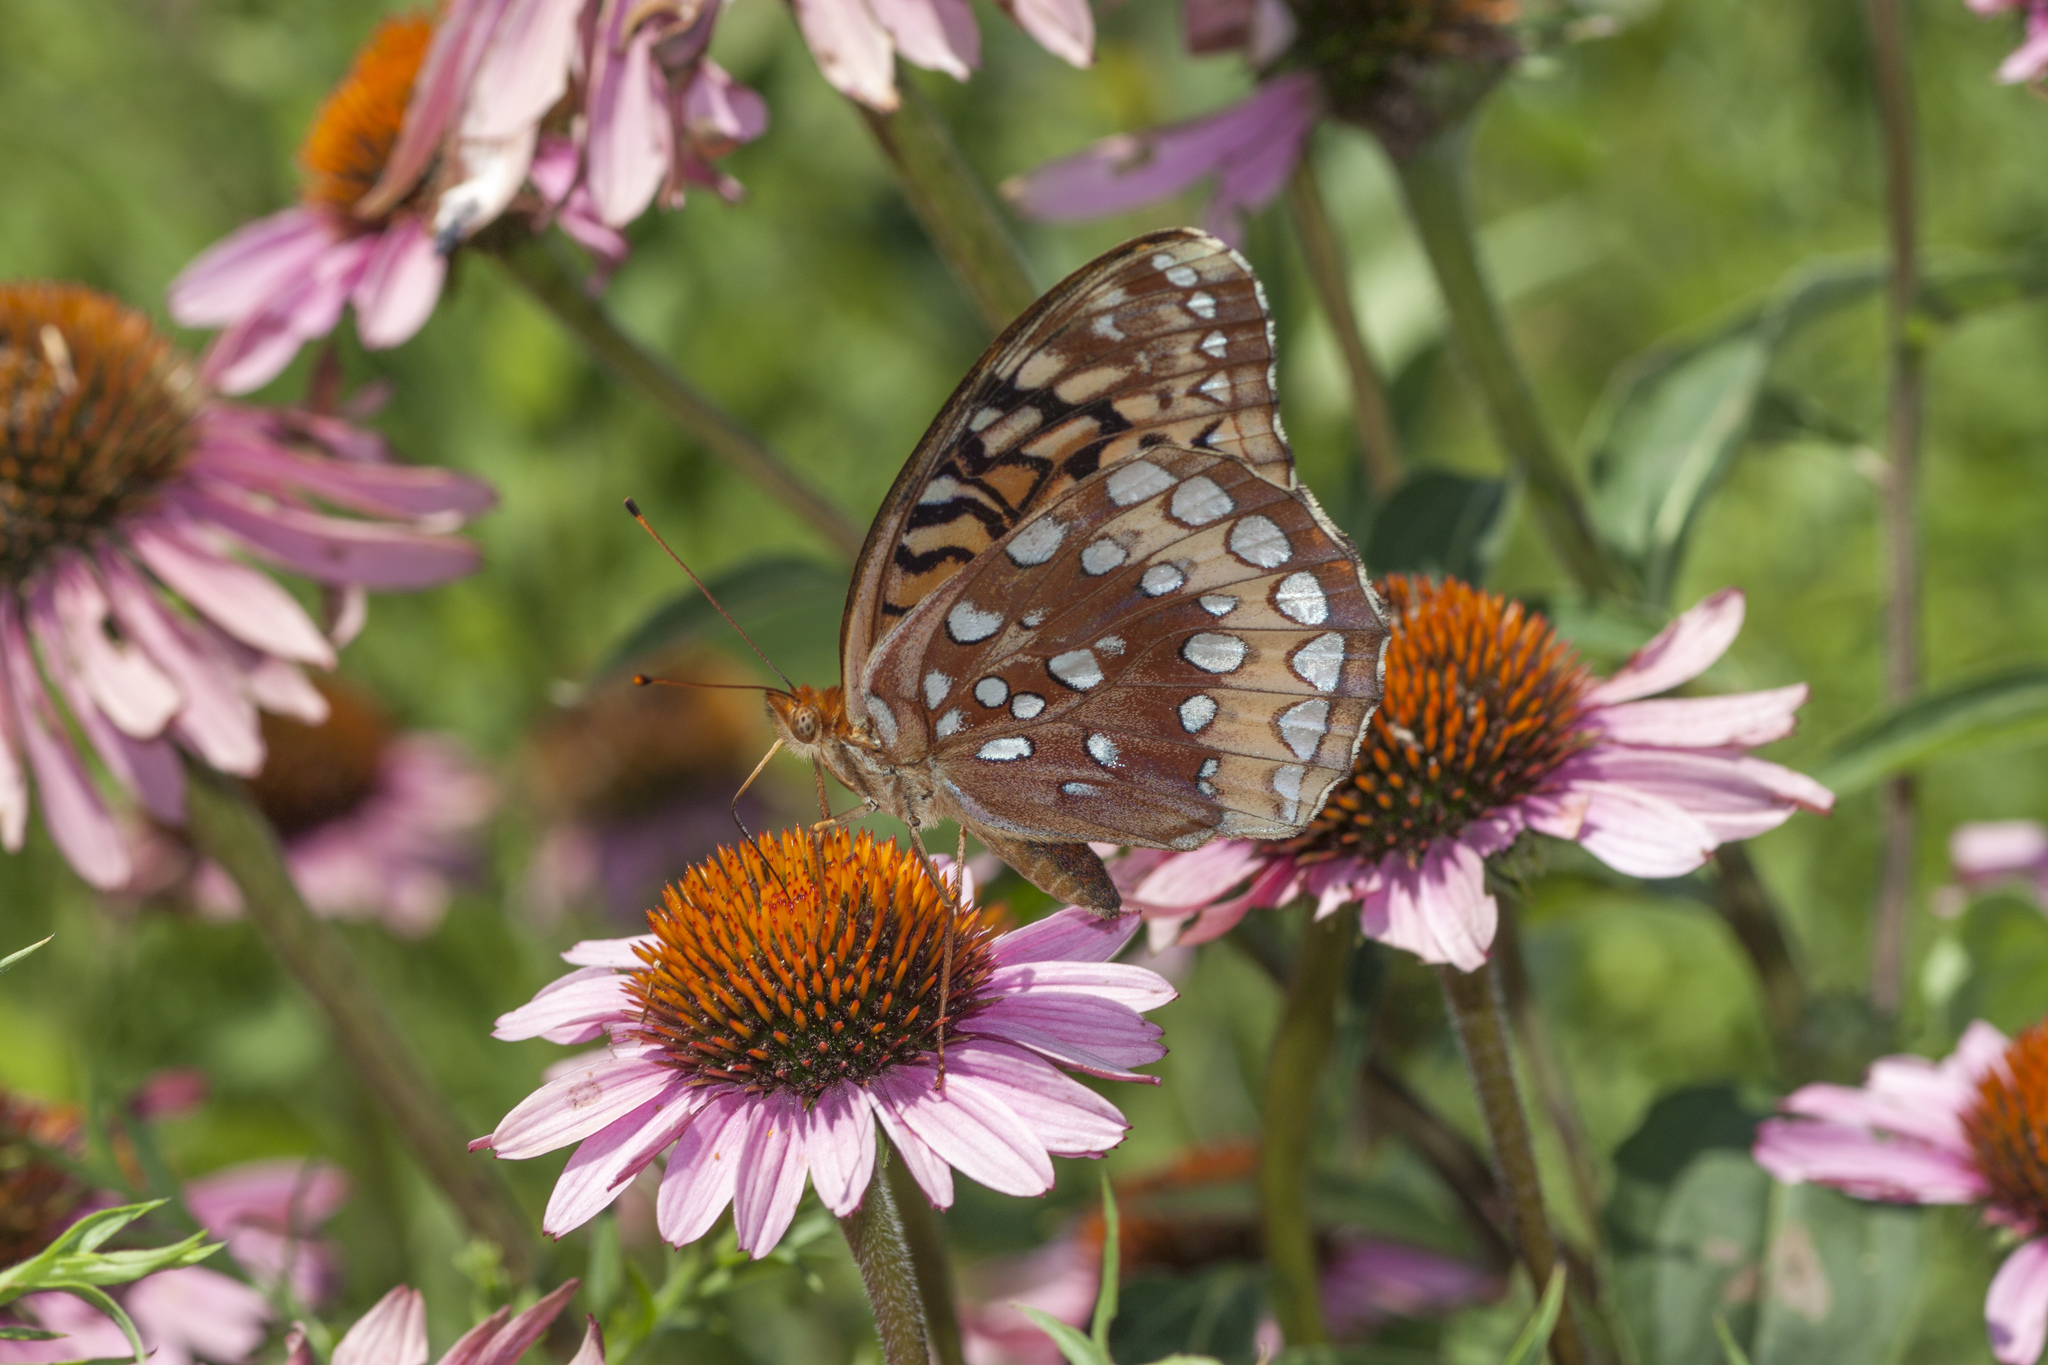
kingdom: Animalia
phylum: Arthropoda
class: Insecta
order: Lepidoptera
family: Nymphalidae
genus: Speyeria
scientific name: Speyeria cybele
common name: Great spangled fritillary
